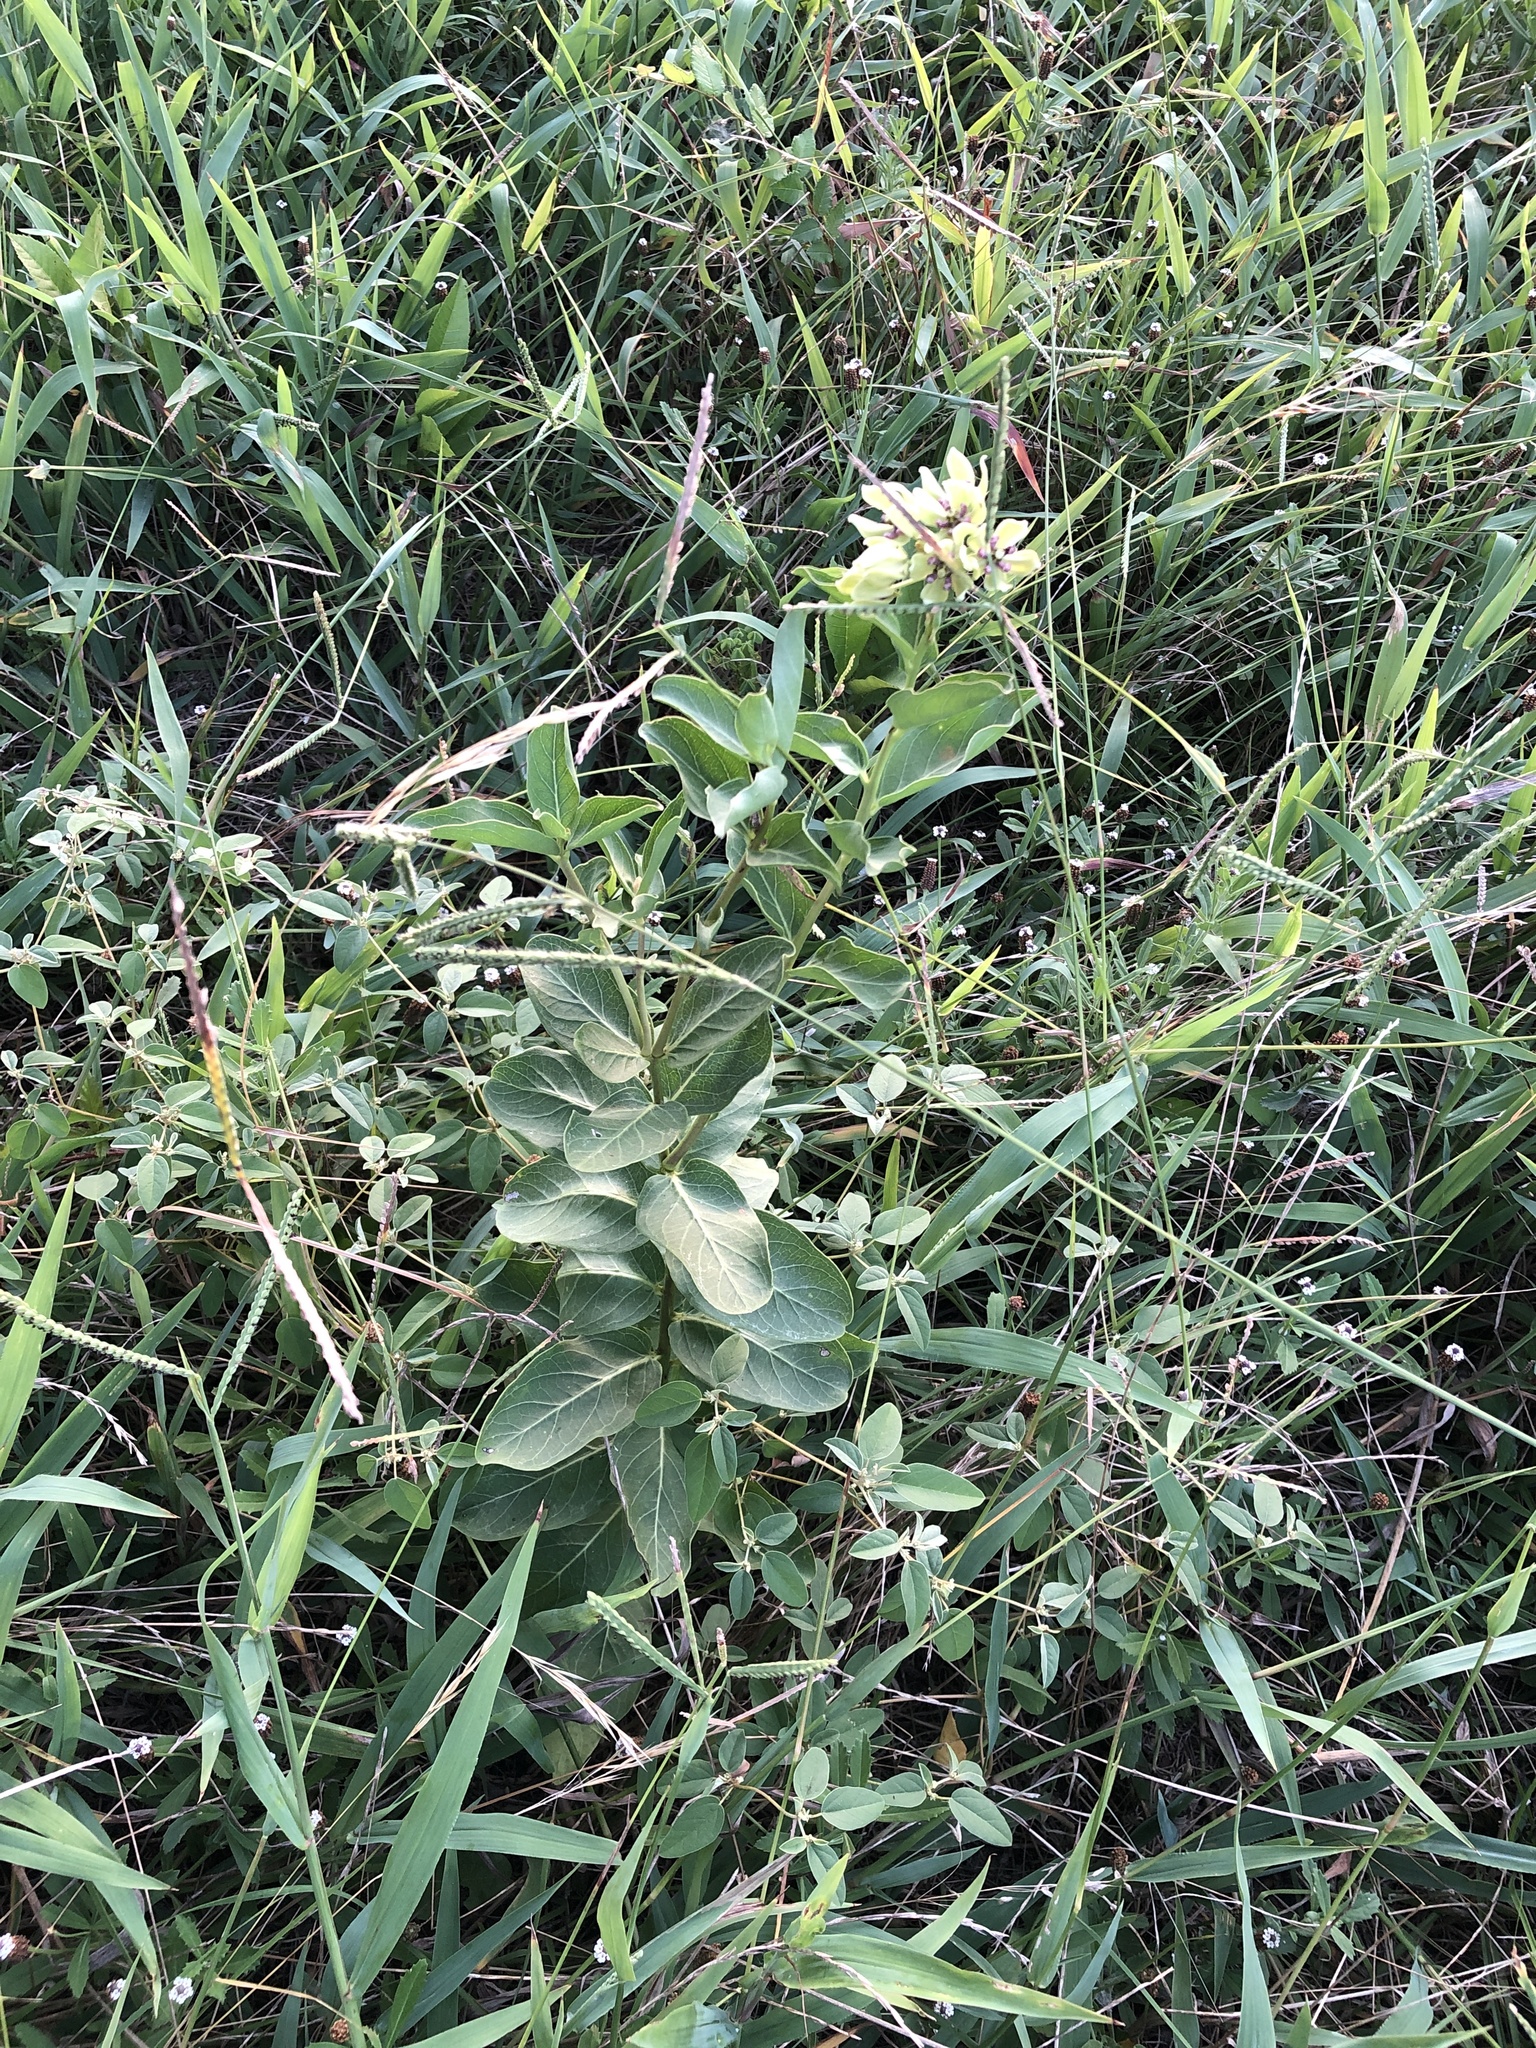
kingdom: Plantae
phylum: Tracheophyta
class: Magnoliopsida
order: Gentianales
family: Apocynaceae
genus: Asclepias
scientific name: Asclepias viridis
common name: Antelope-horns
